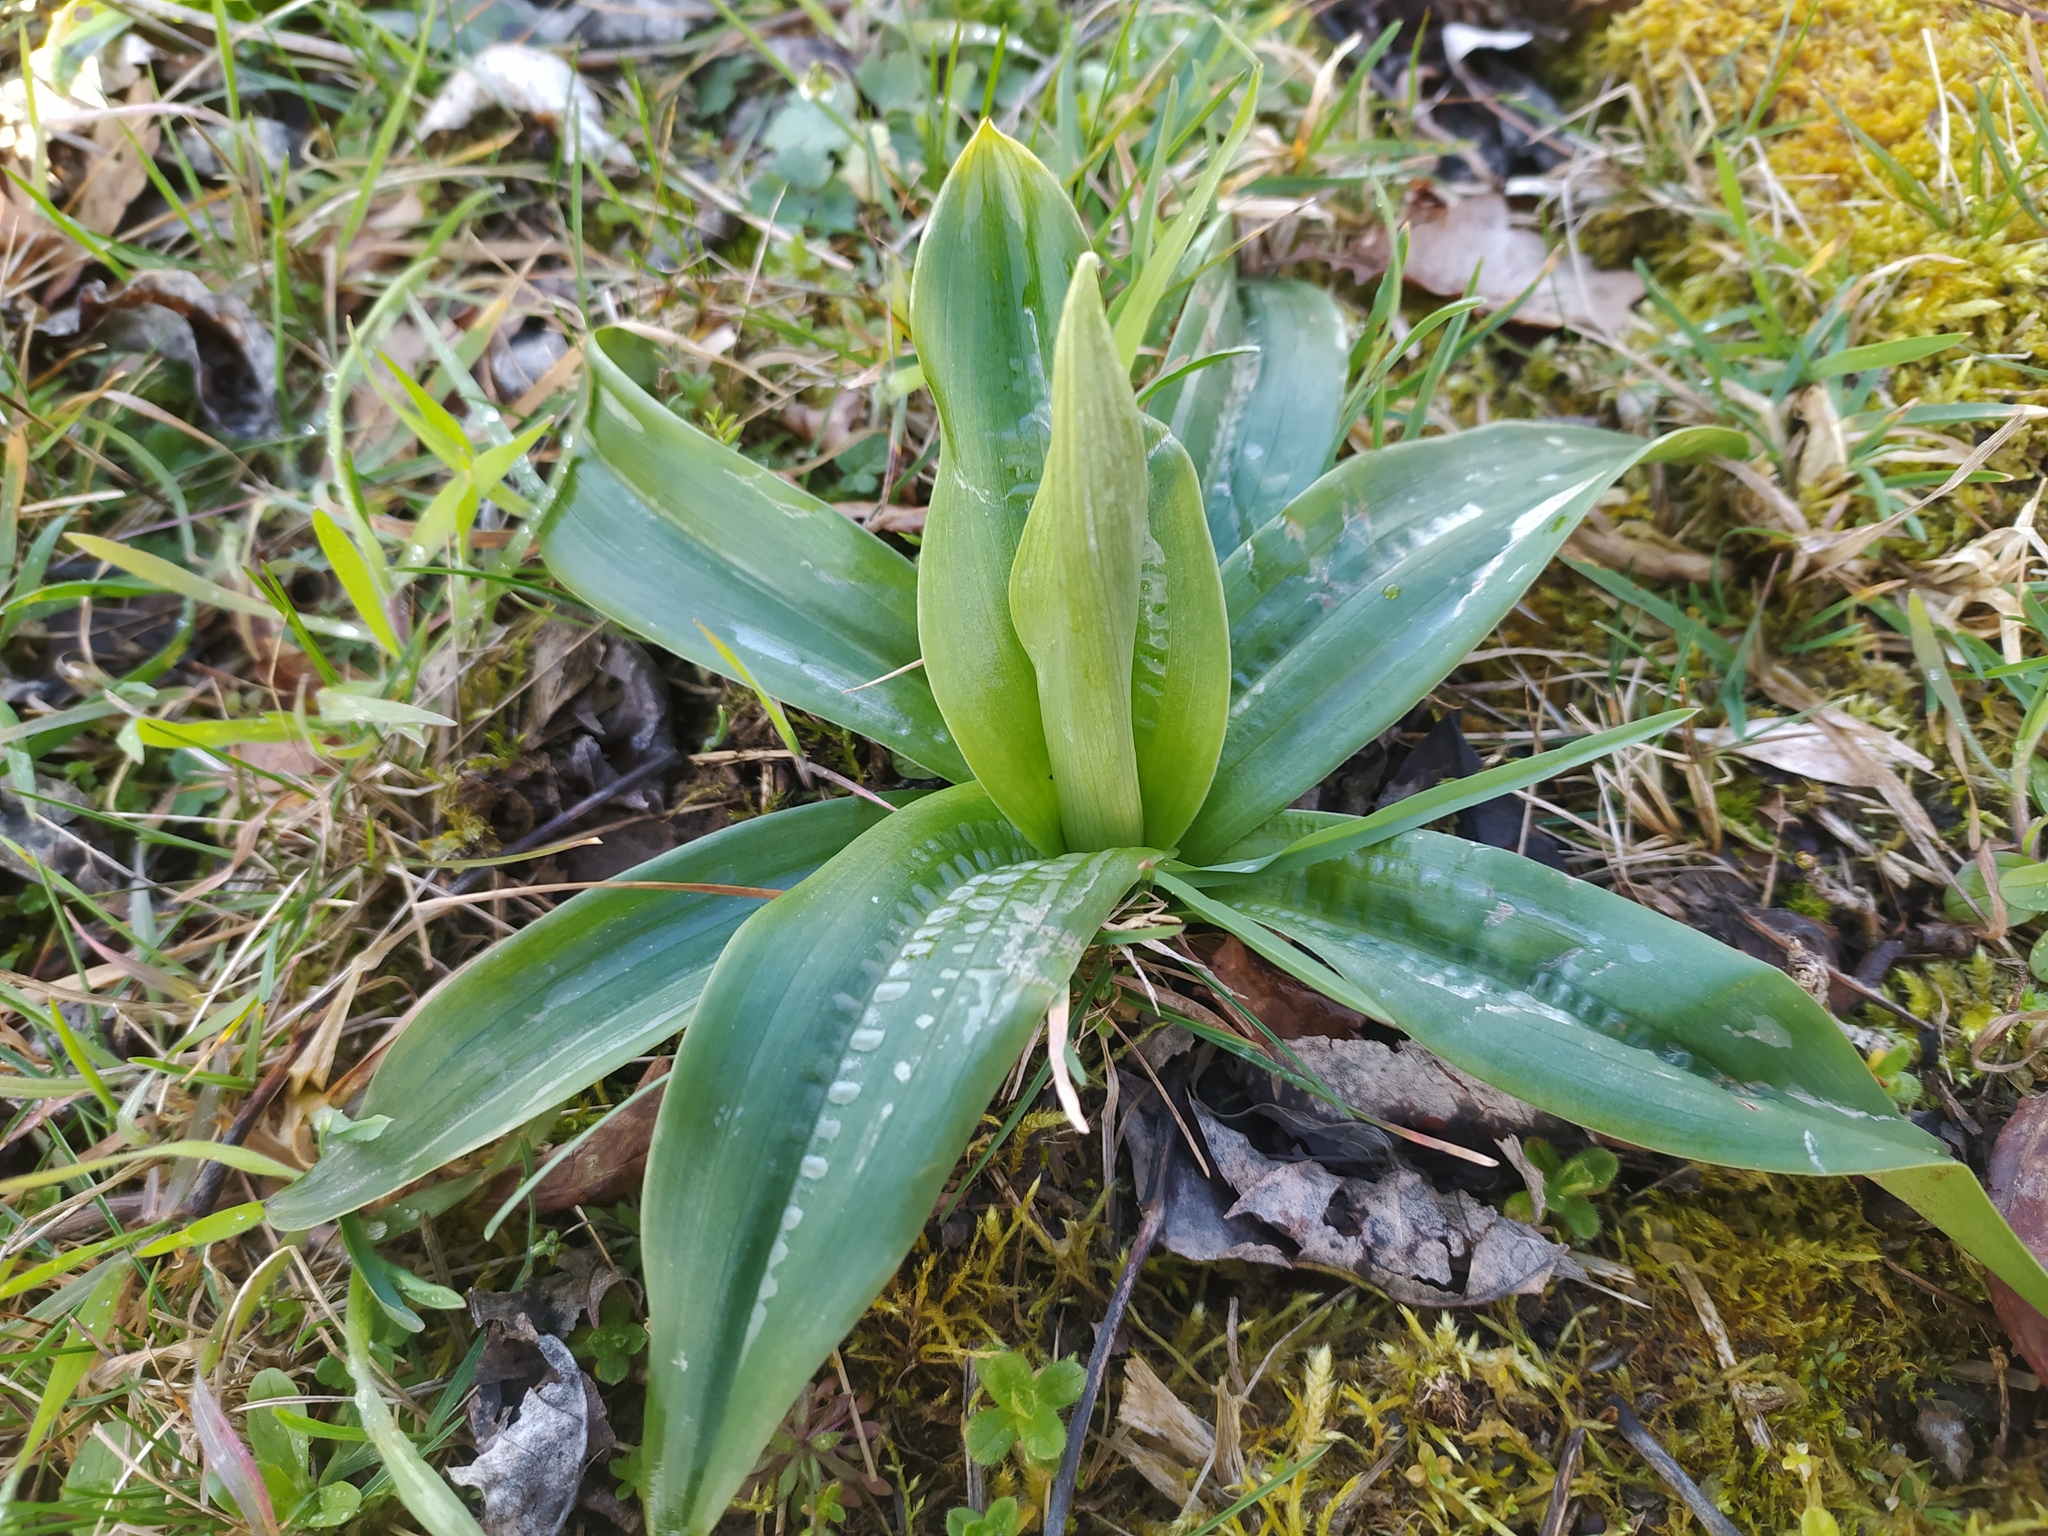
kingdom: Plantae
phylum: Tracheophyta
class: Liliopsida
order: Asparagales
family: Orchidaceae
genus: Orchis
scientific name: Orchis mascula
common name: Early-purple orchid
